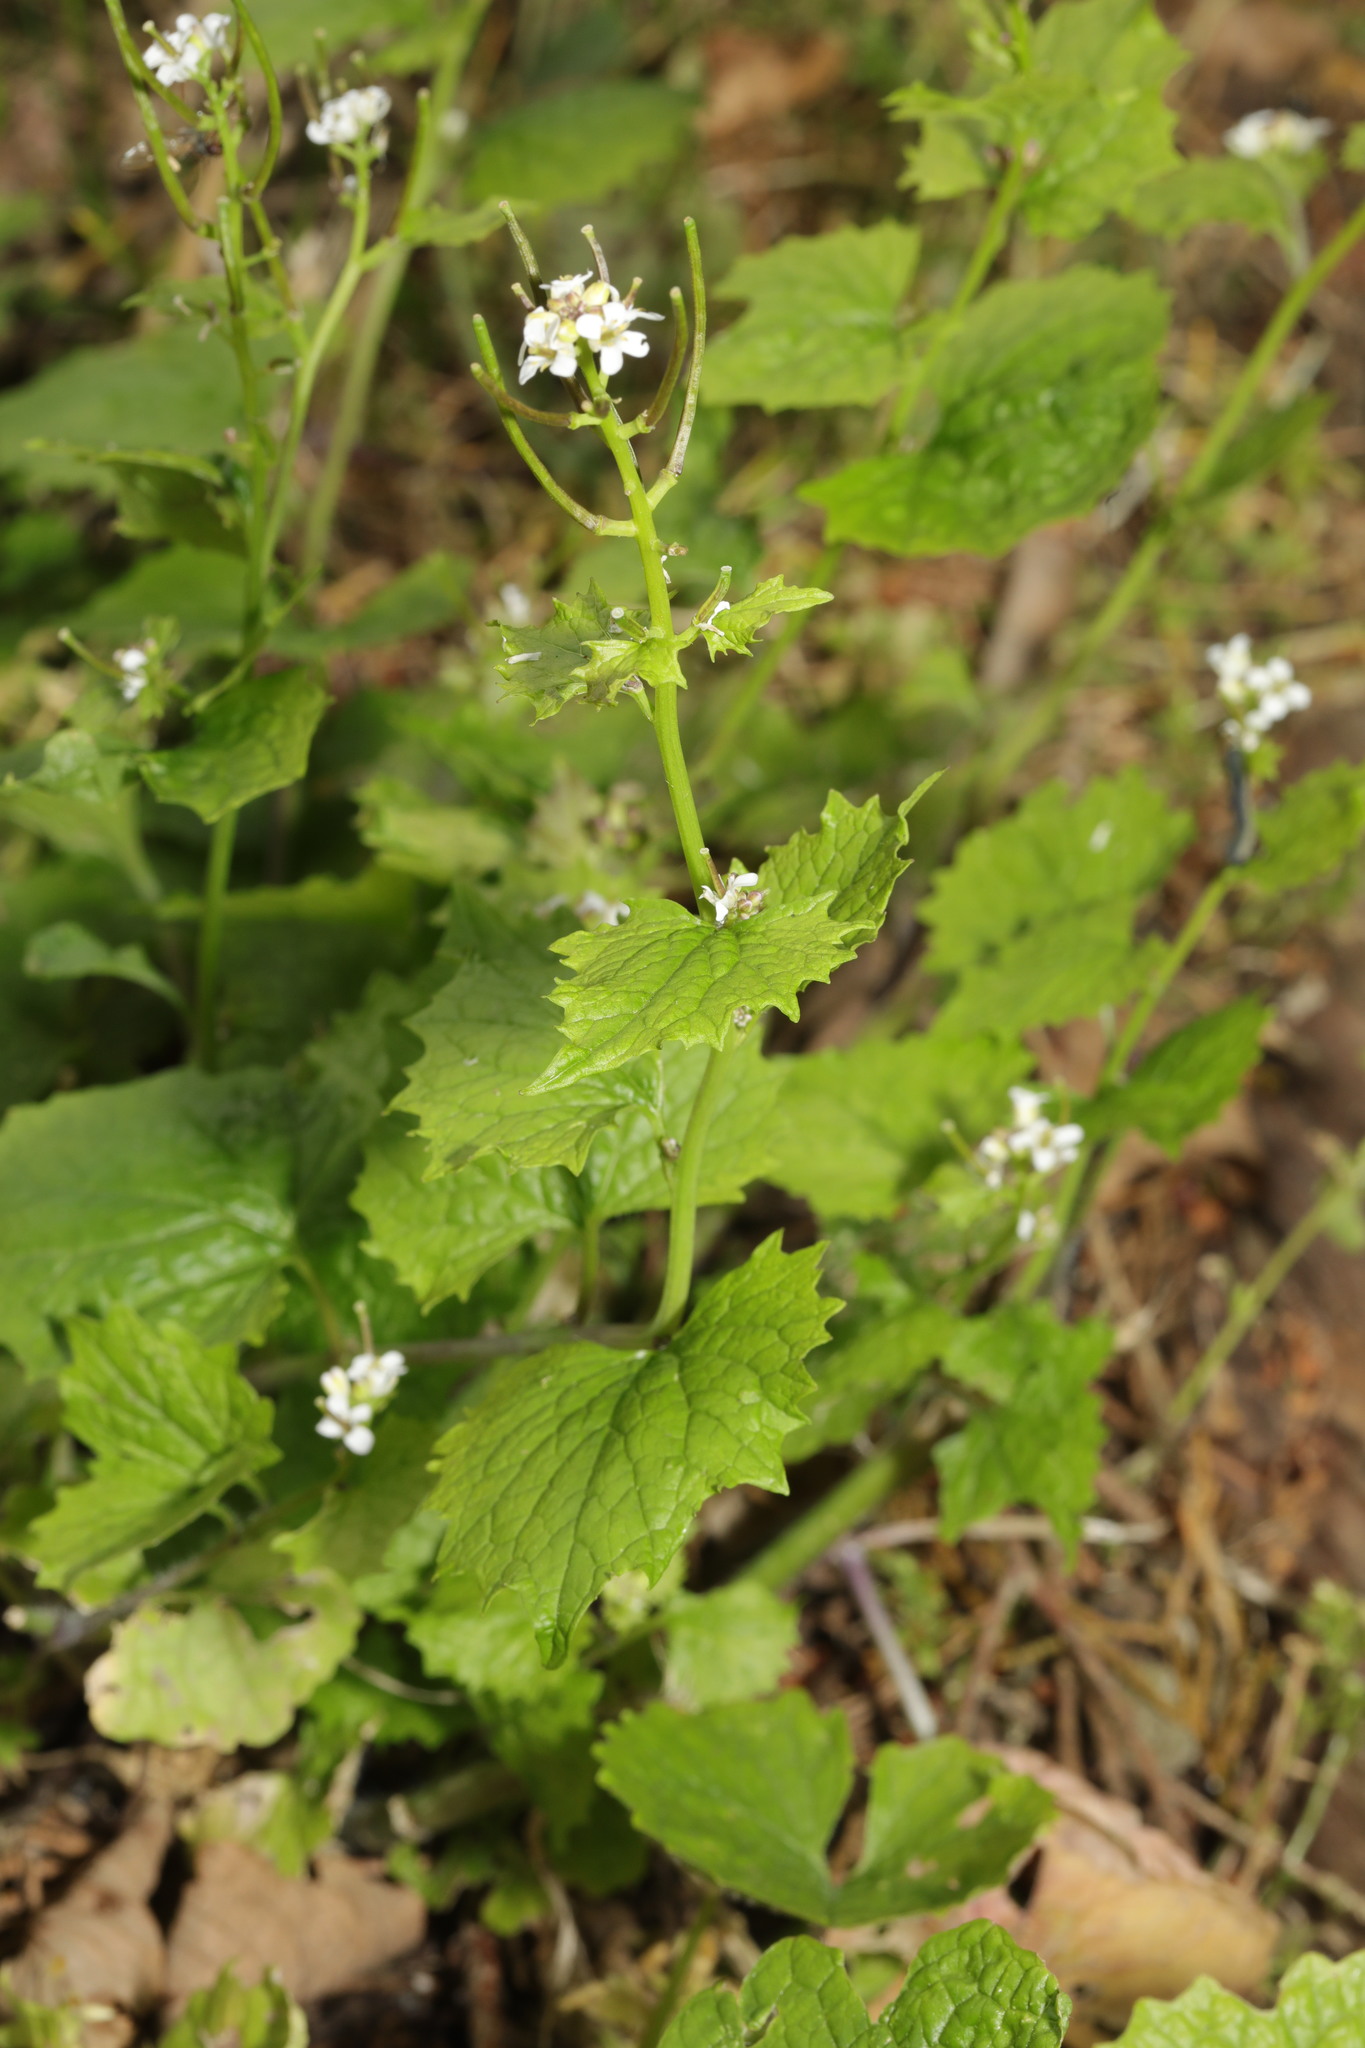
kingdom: Plantae
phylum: Tracheophyta
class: Magnoliopsida
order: Brassicales
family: Brassicaceae
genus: Alliaria
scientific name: Alliaria petiolata
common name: Garlic mustard
